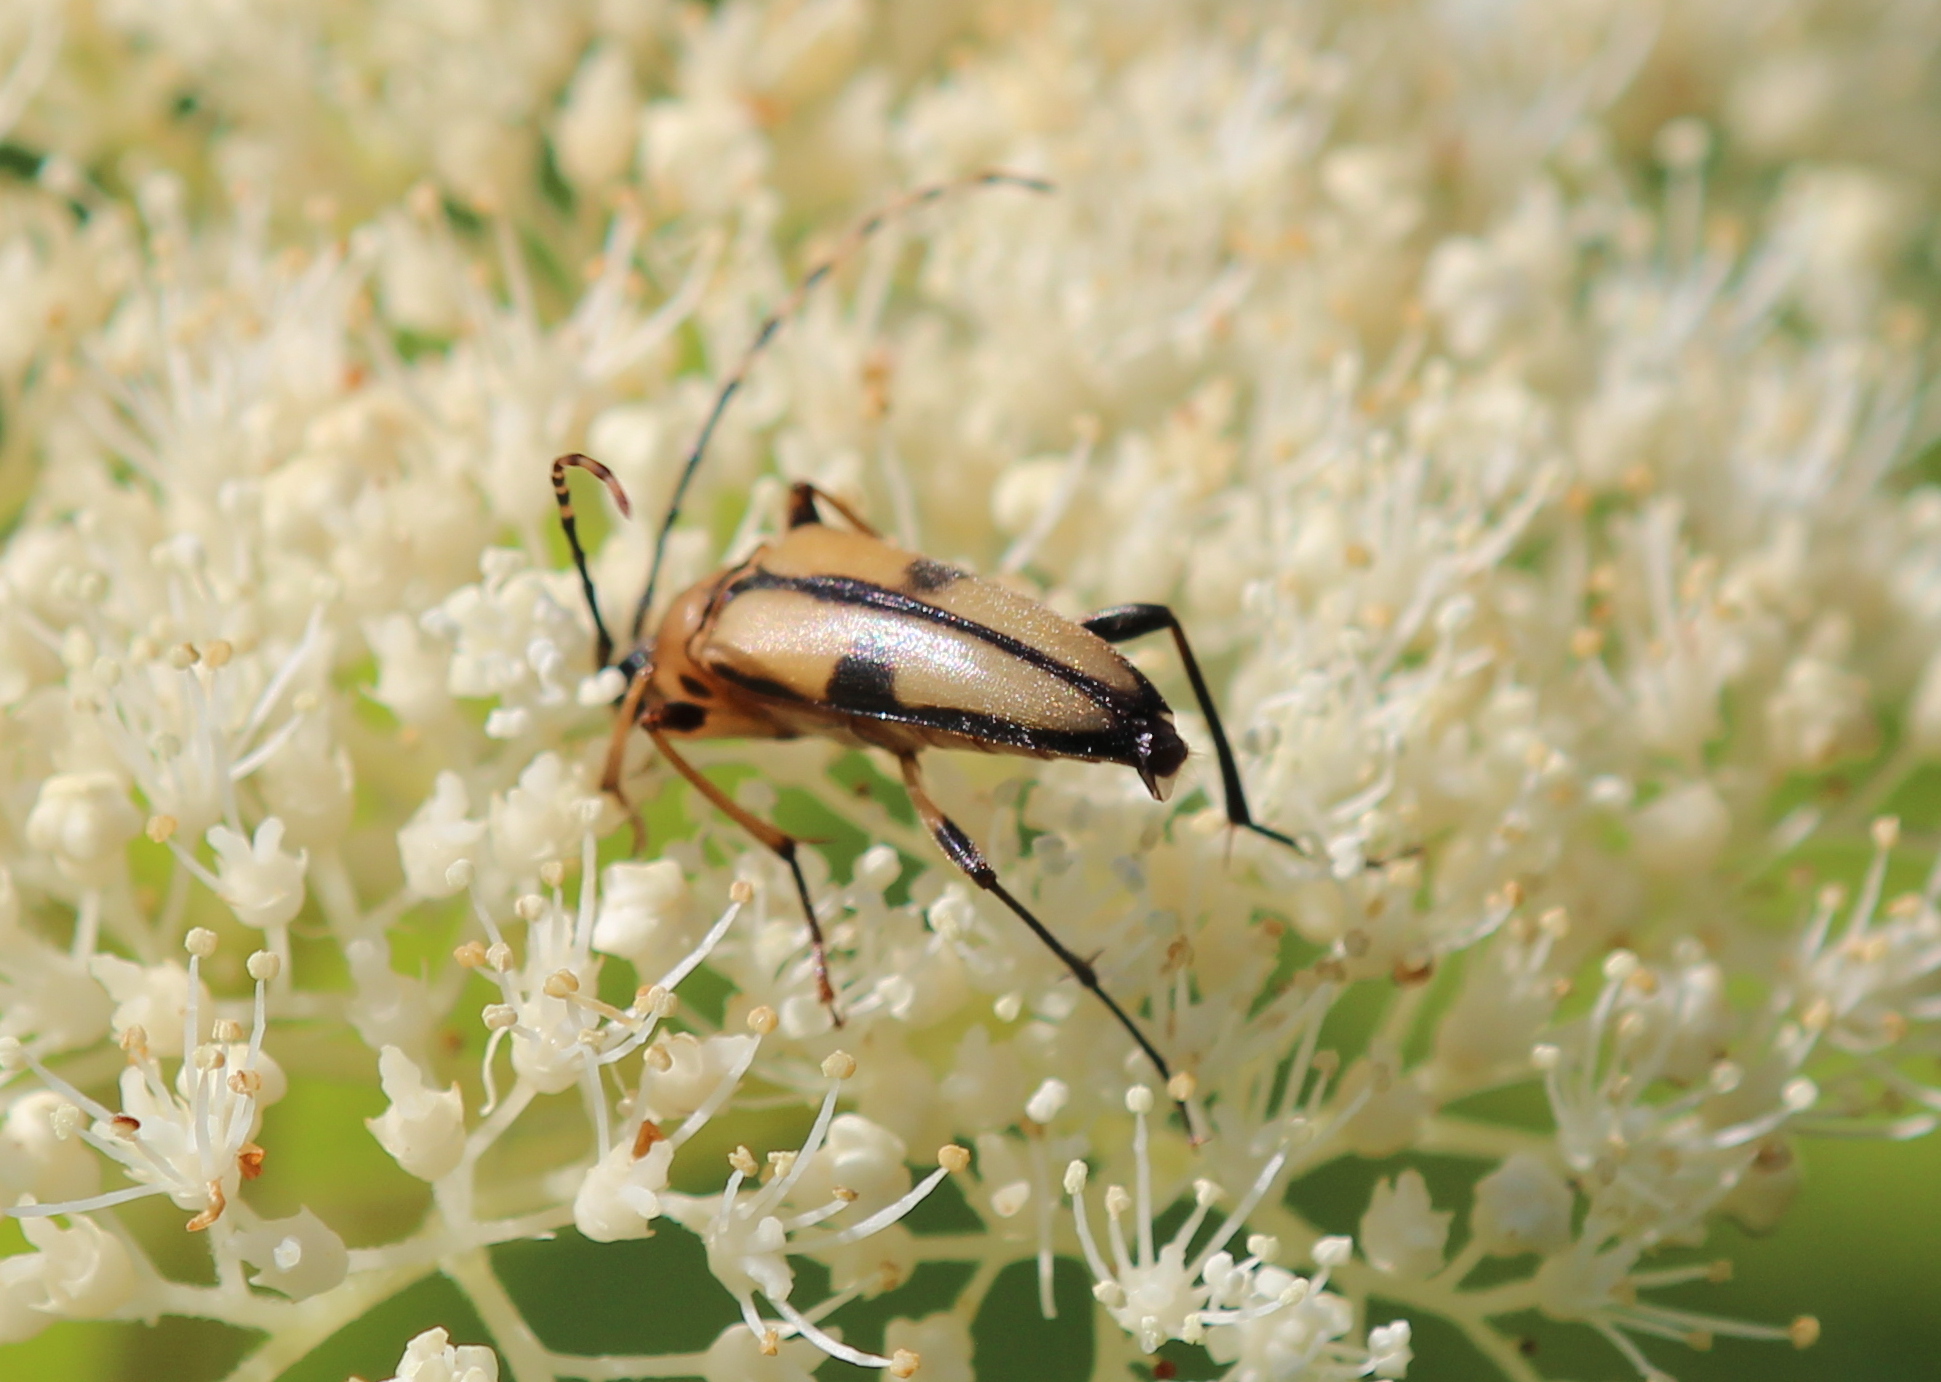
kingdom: Animalia
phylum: Arthropoda
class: Insecta
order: Coleoptera
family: Cerambycidae
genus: Etorofus
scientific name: Etorofus
